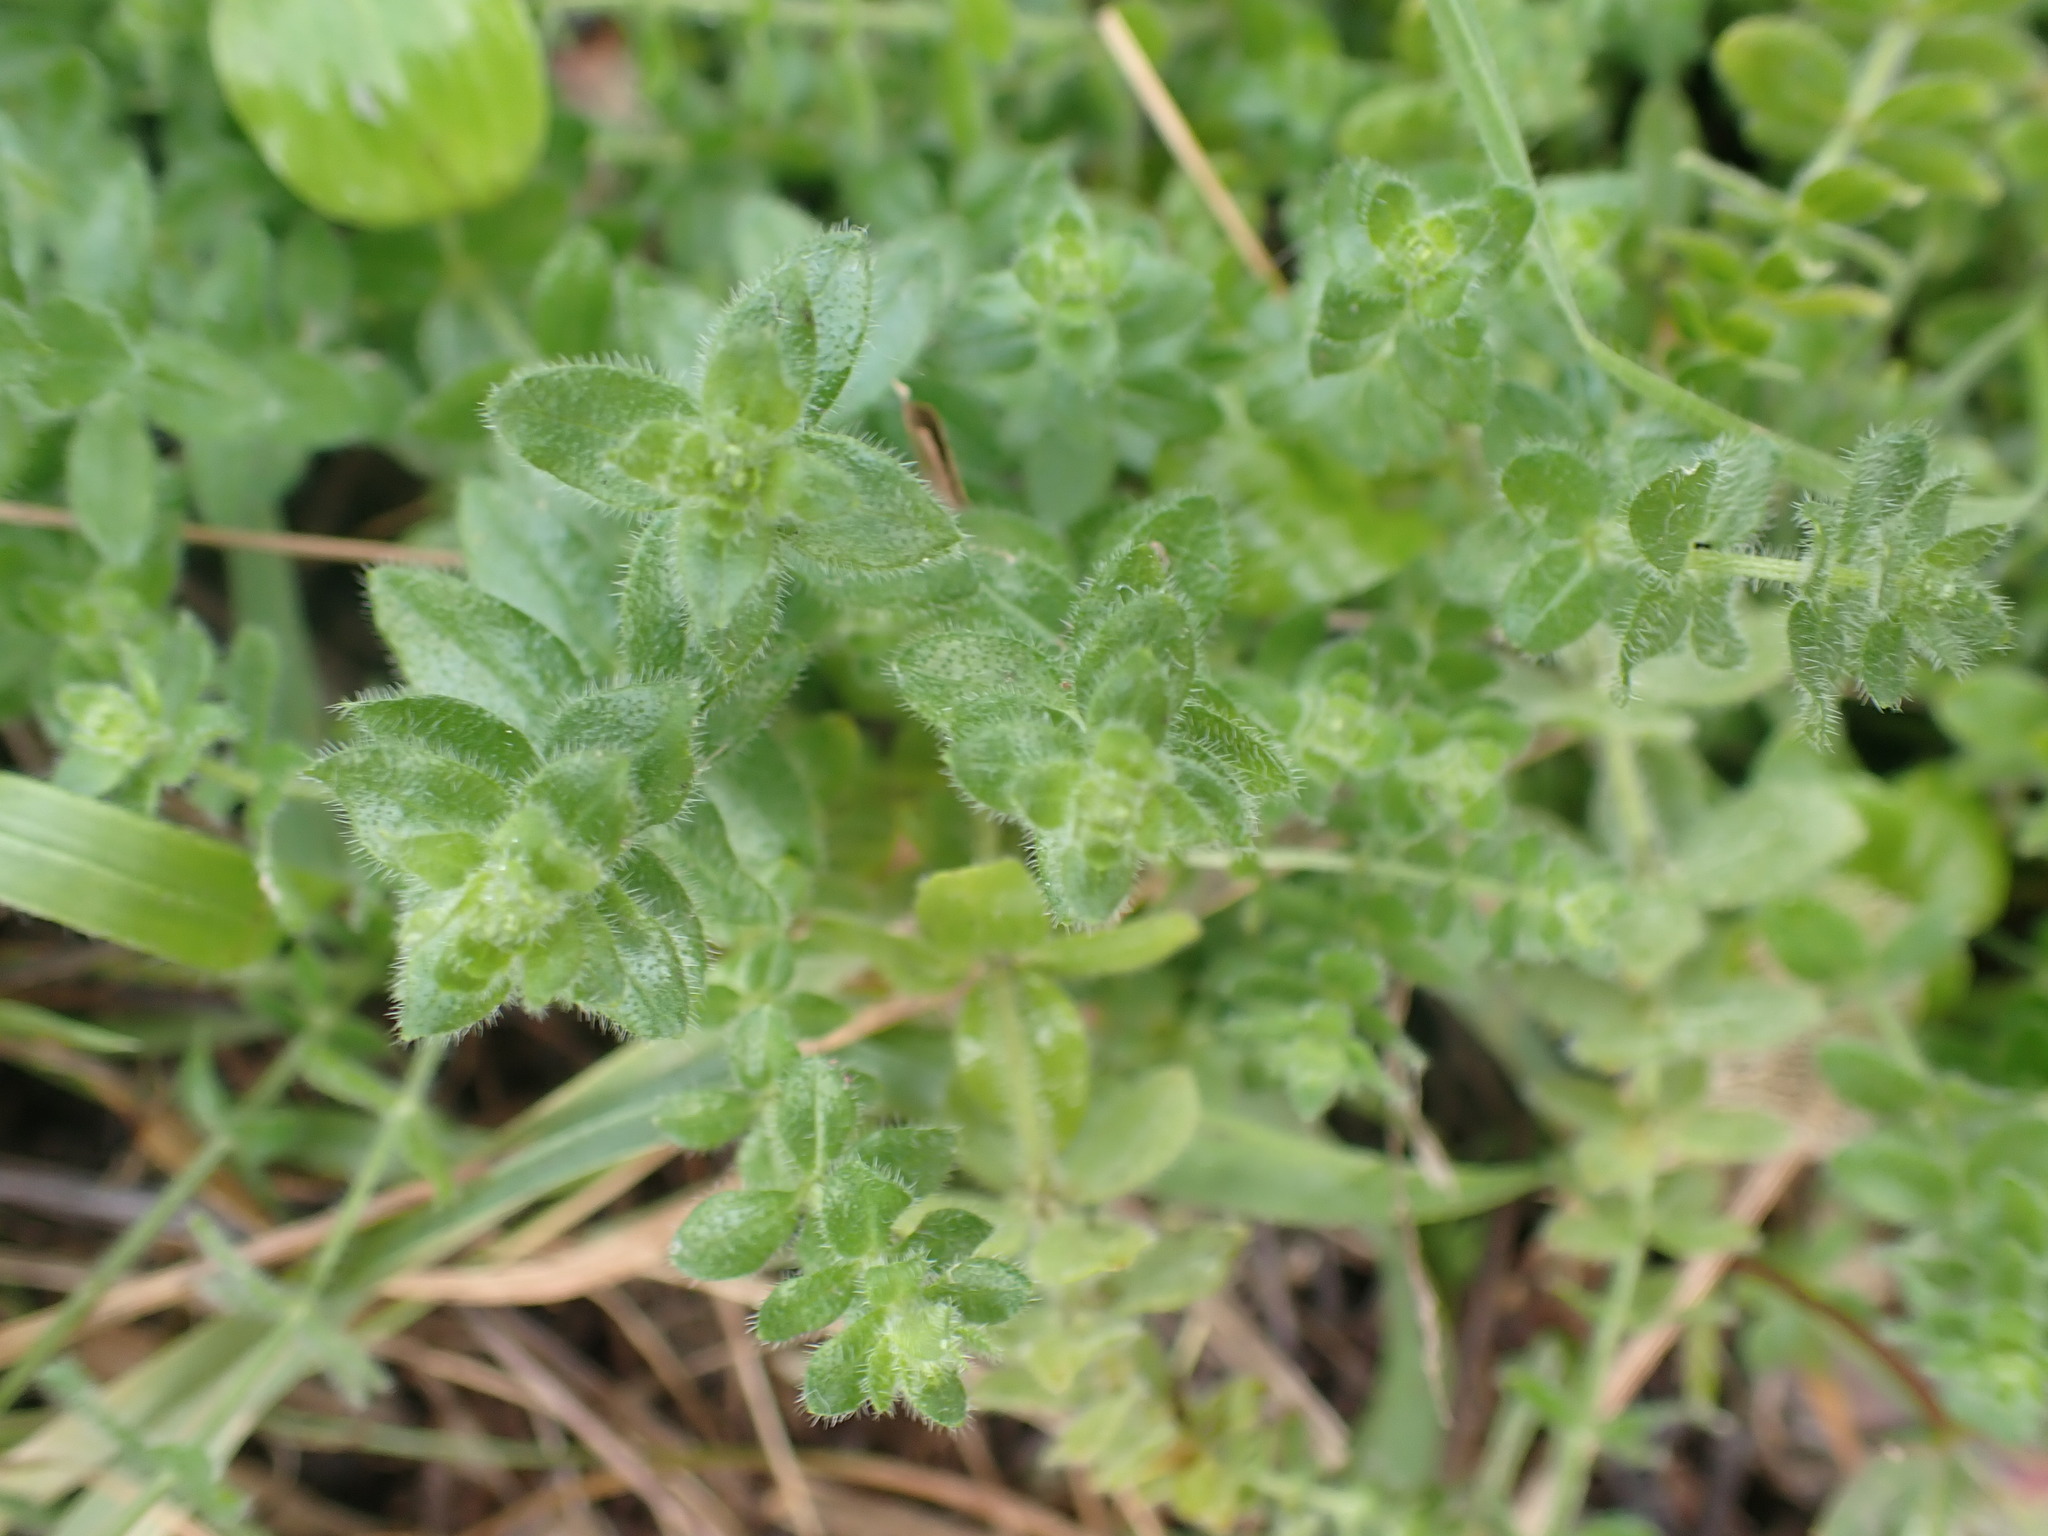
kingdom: Plantae
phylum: Tracheophyta
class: Magnoliopsida
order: Gentianales
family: Rubiaceae
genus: Cruciata
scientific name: Cruciata laevipes
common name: Crosswort
